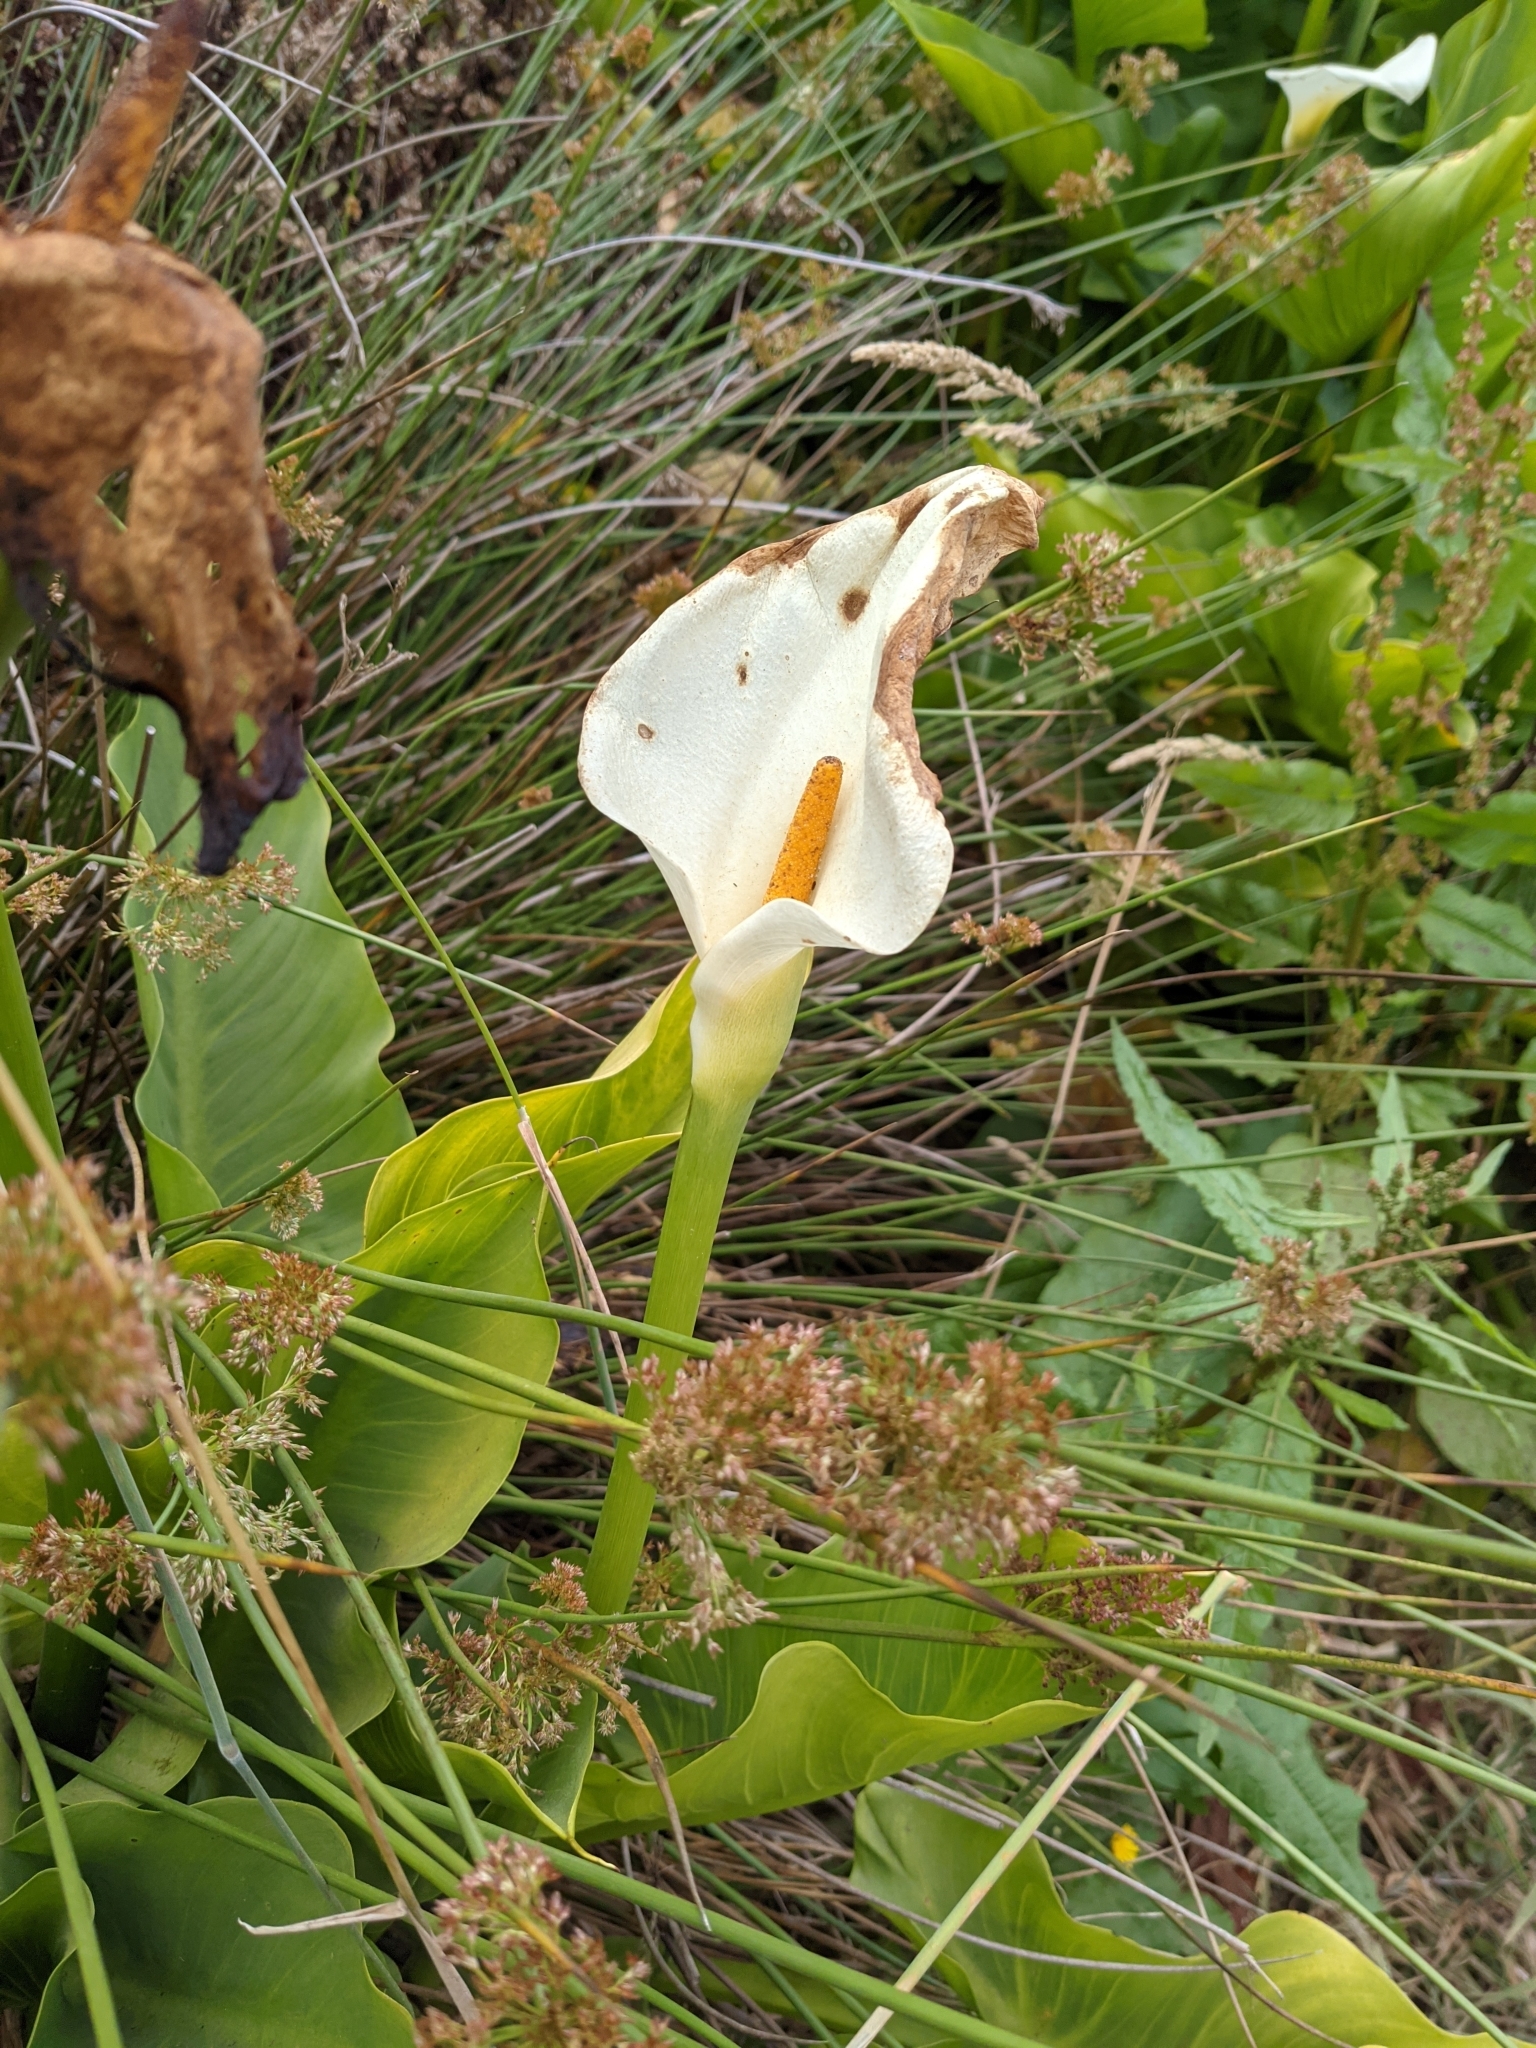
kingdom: Plantae
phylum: Tracheophyta
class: Liliopsida
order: Alismatales
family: Araceae
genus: Zantedeschia
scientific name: Zantedeschia aethiopica
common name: Altar-lily
